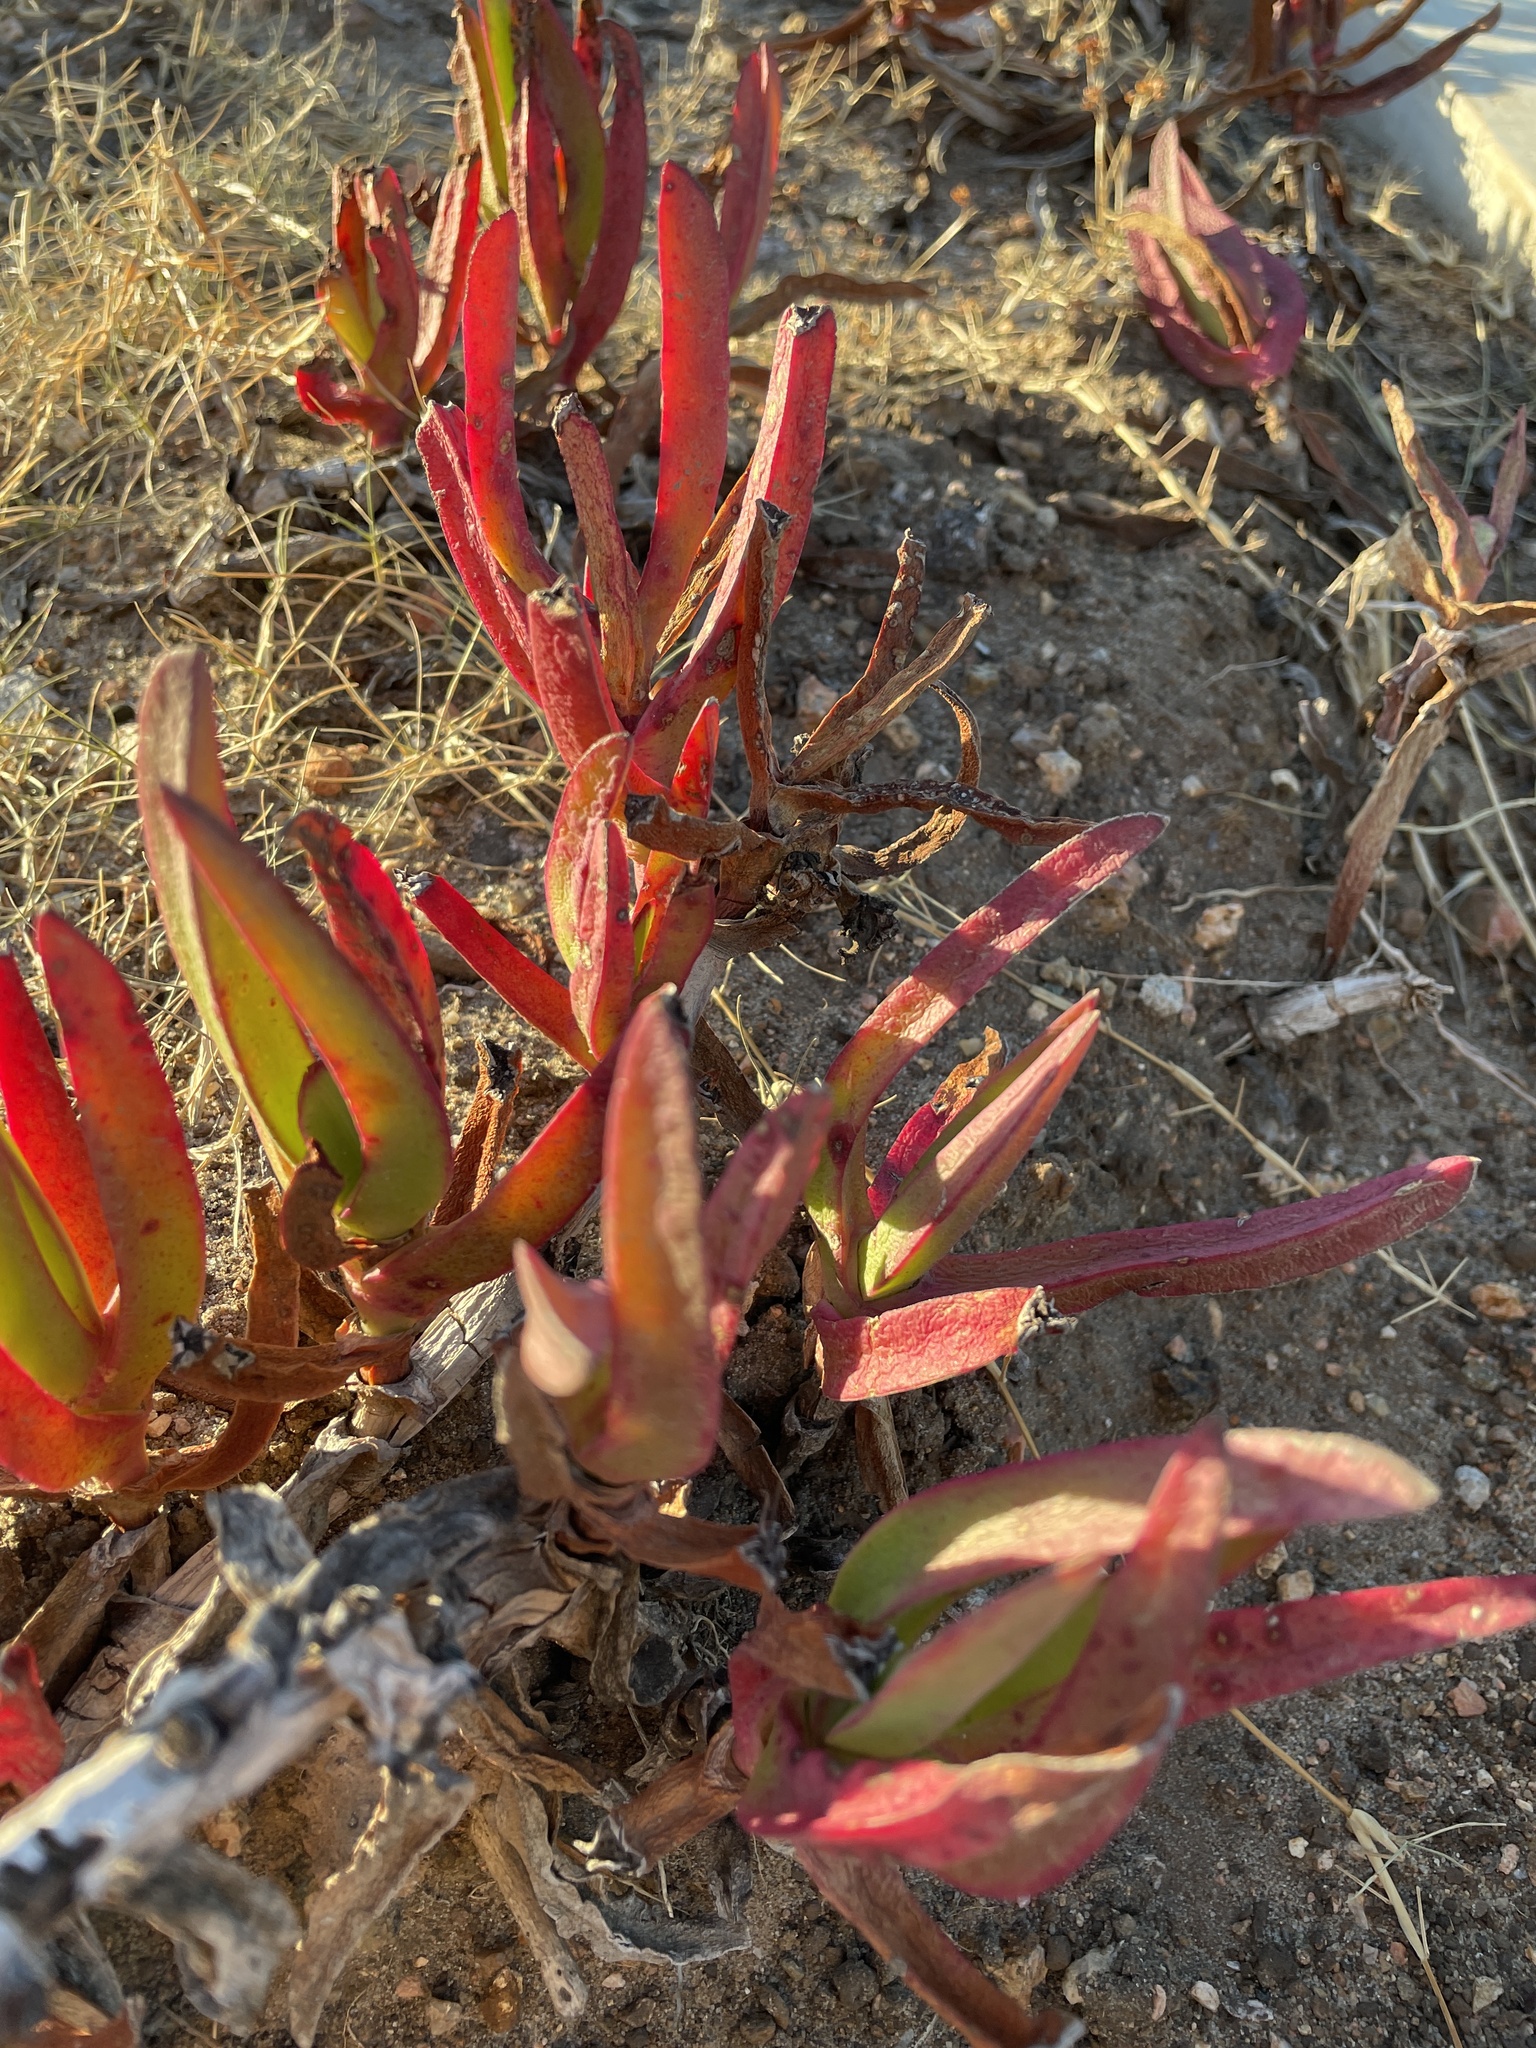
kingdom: Plantae
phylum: Tracheophyta
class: Magnoliopsida
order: Caryophyllales
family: Aizoaceae
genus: Carpobrotus
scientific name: Carpobrotus edulis
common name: Hottentot-fig
